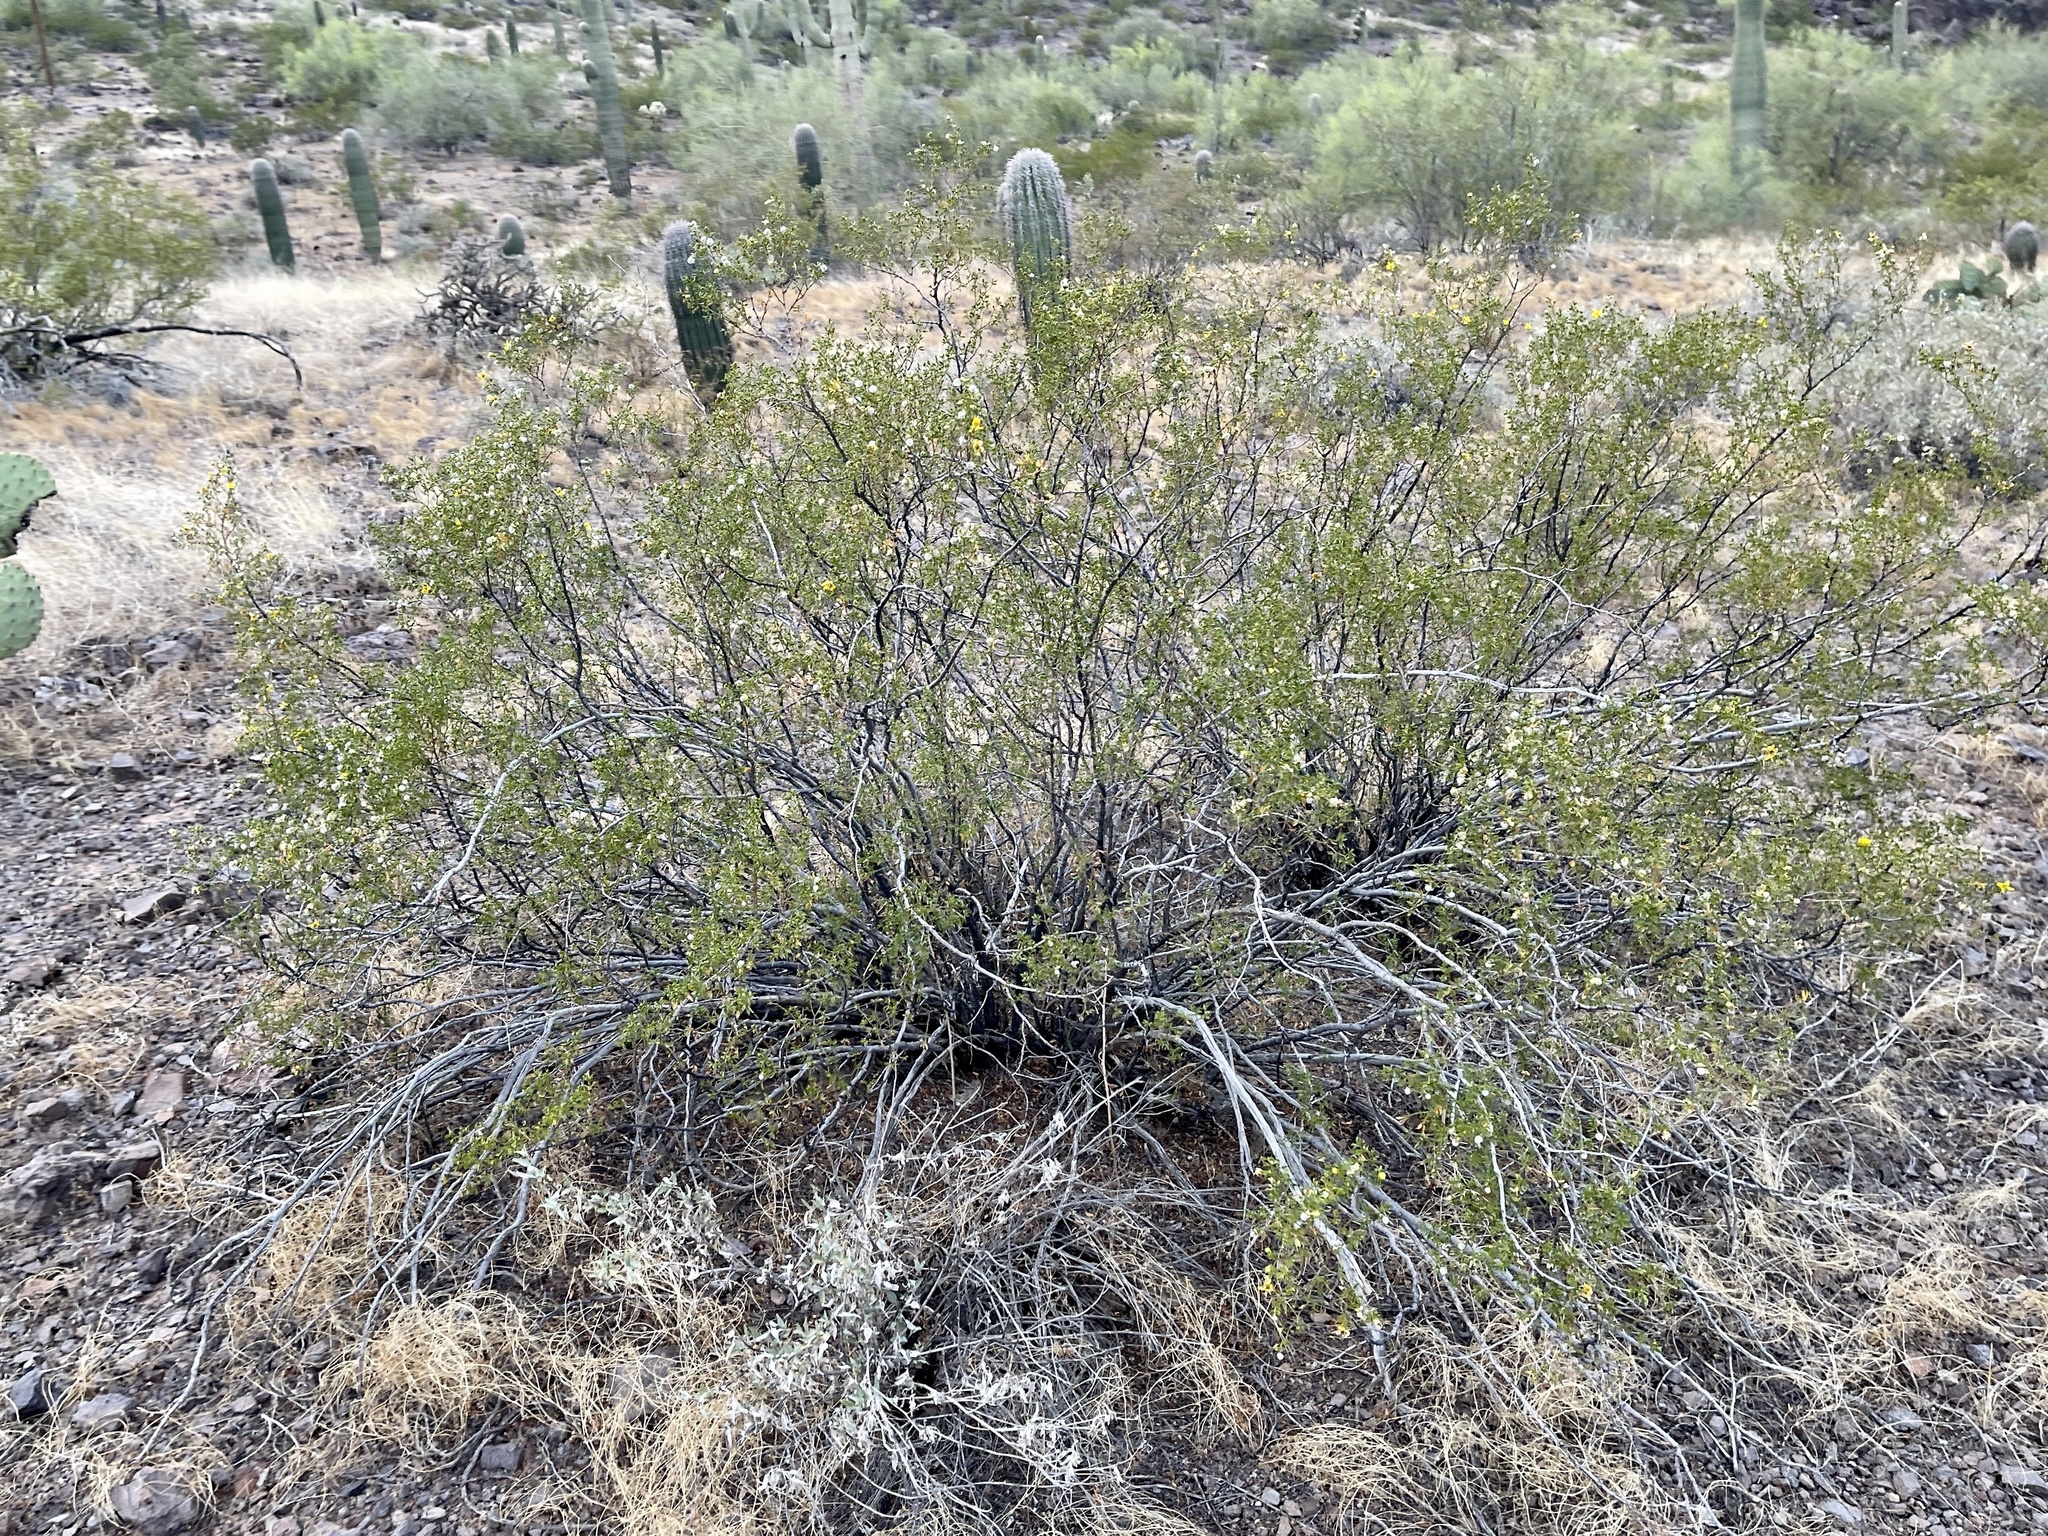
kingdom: Plantae
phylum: Tracheophyta
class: Magnoliopsida
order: Zygophyllales
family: Zygophyllaceae
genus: Larrea
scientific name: Larrea tridentata
